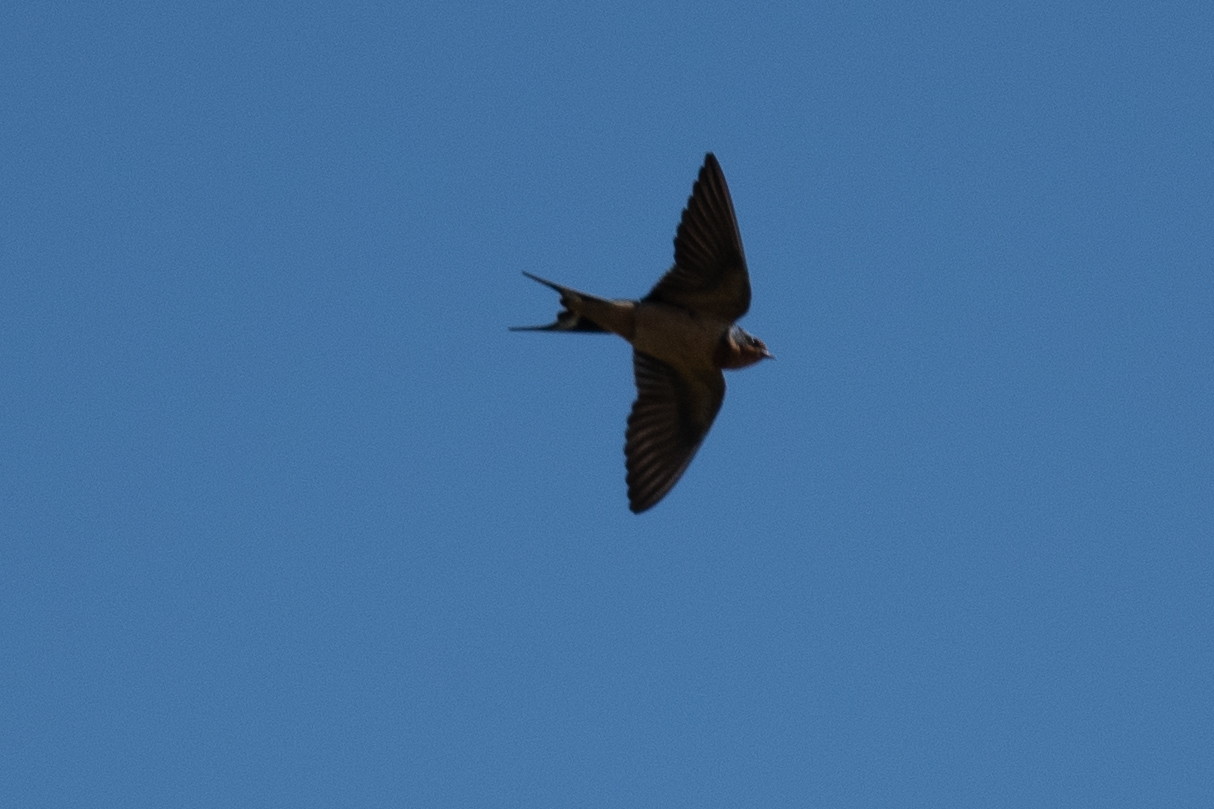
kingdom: Animalia
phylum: Chordata
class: Aves
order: Passeriformes
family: Hirundinidae
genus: Hirundo
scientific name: Hirundo rustica
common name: Barn swallow
